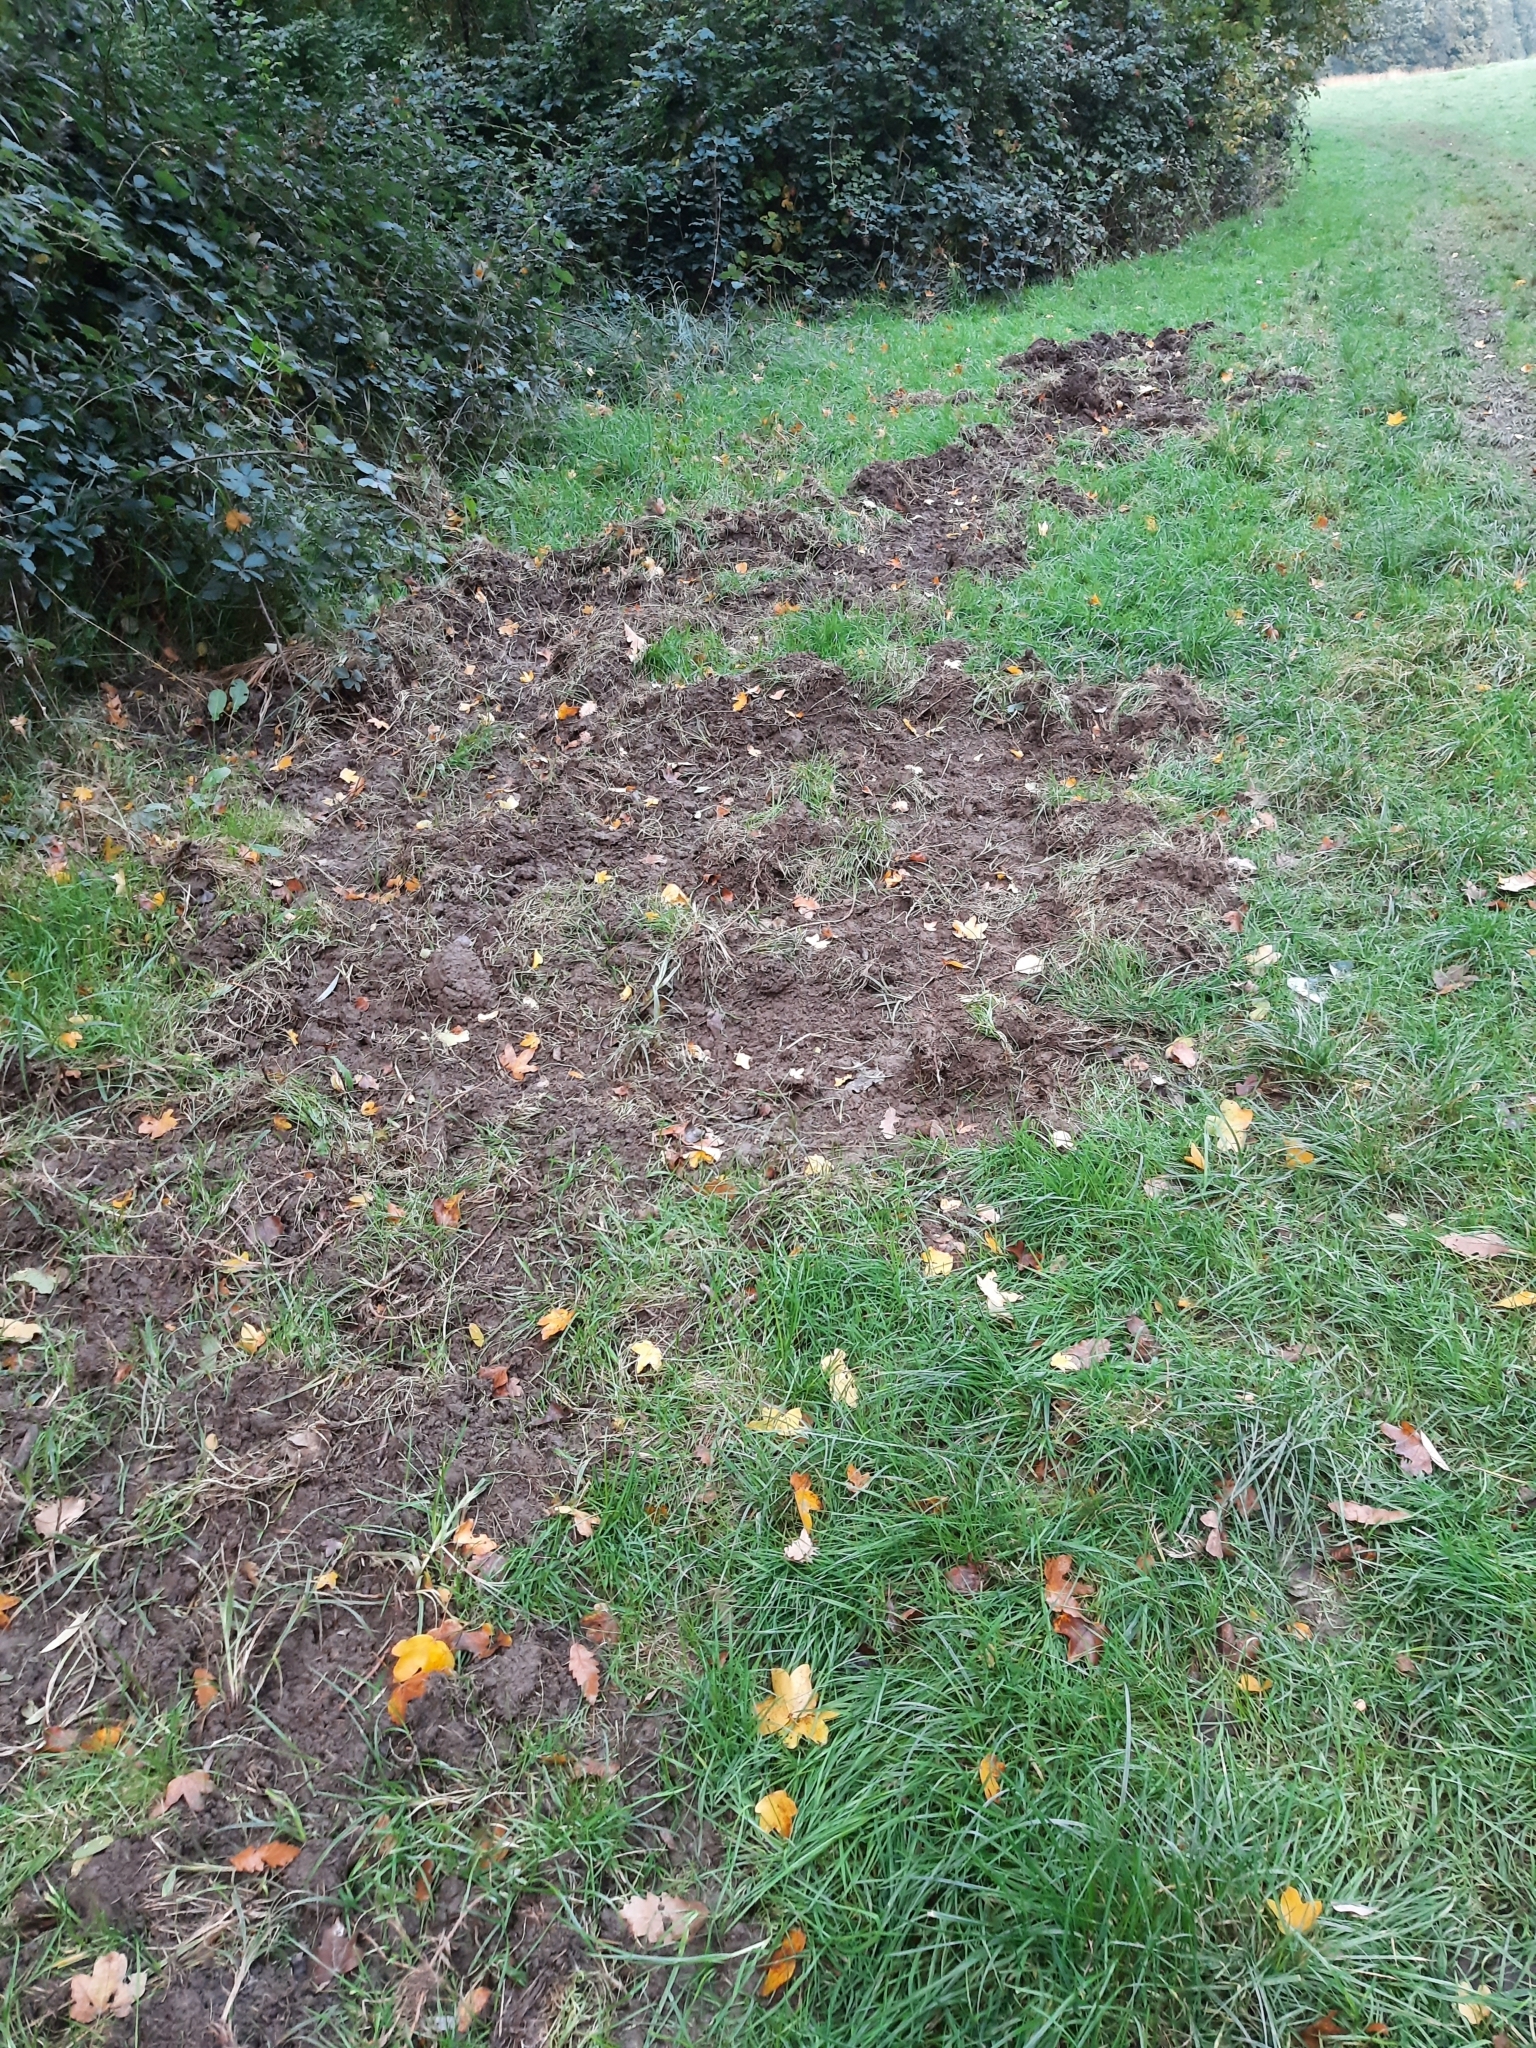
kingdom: Animalia
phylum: Chordata
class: Mammalia
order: Artiodactyla
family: Suidae
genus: Sus
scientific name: Sus scrofa
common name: Wild boar
